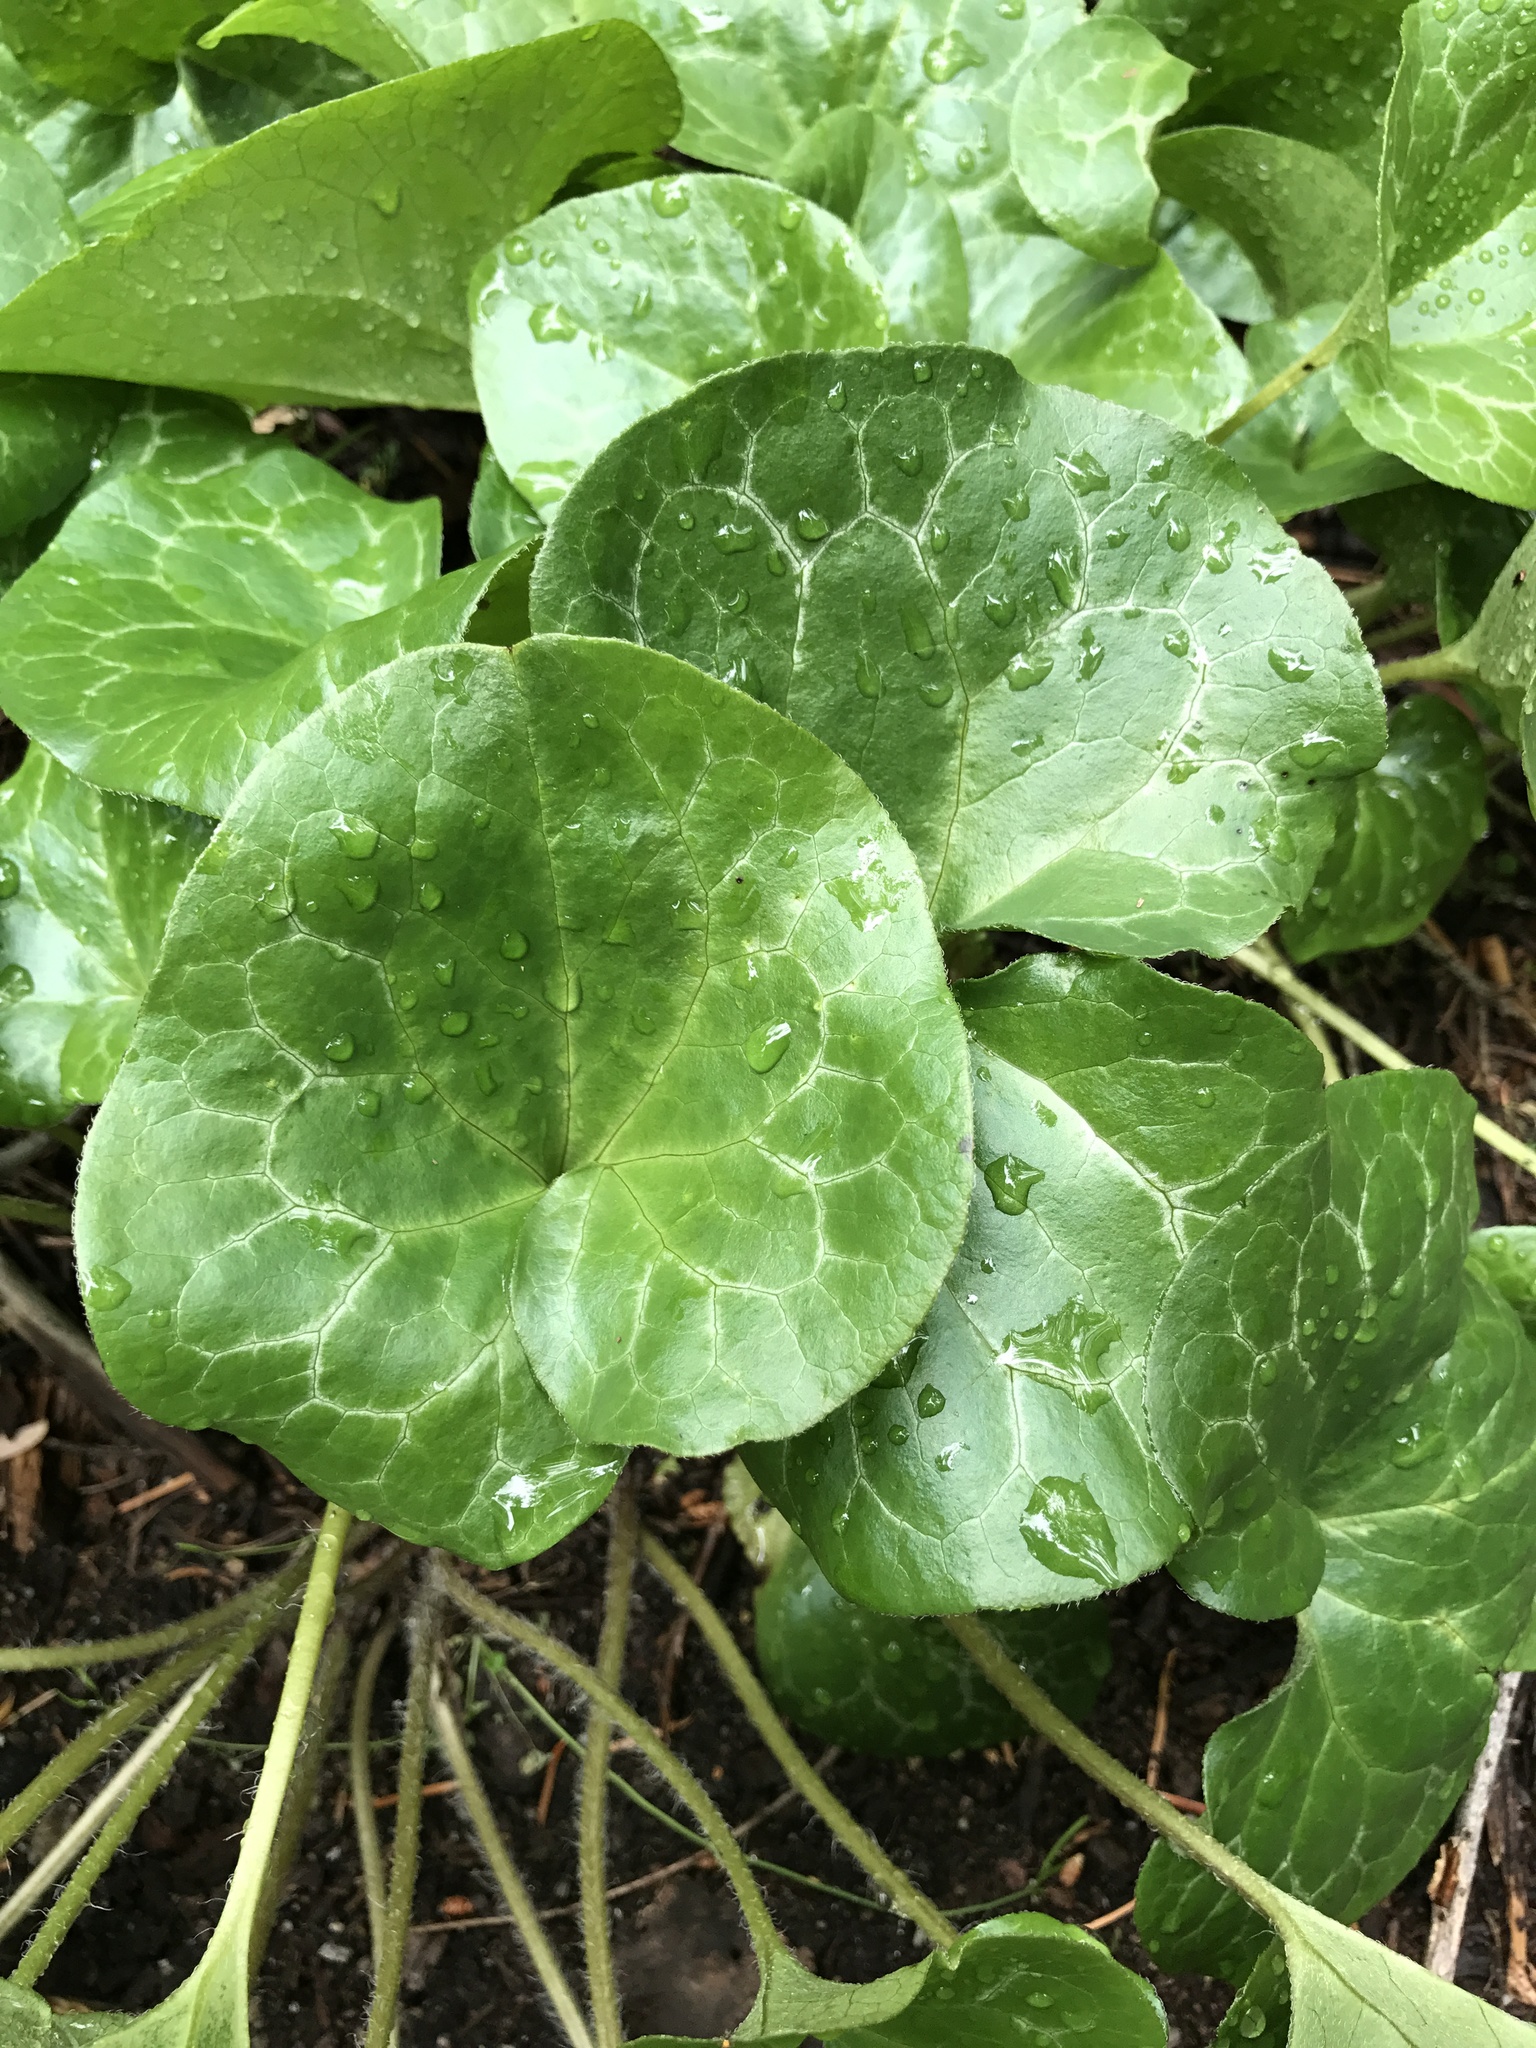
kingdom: Plantae
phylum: Tracheophyta
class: Magnoliopsida
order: Piperales
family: Aristolochiaceae
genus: Asarum
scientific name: Asarum hartwegii
